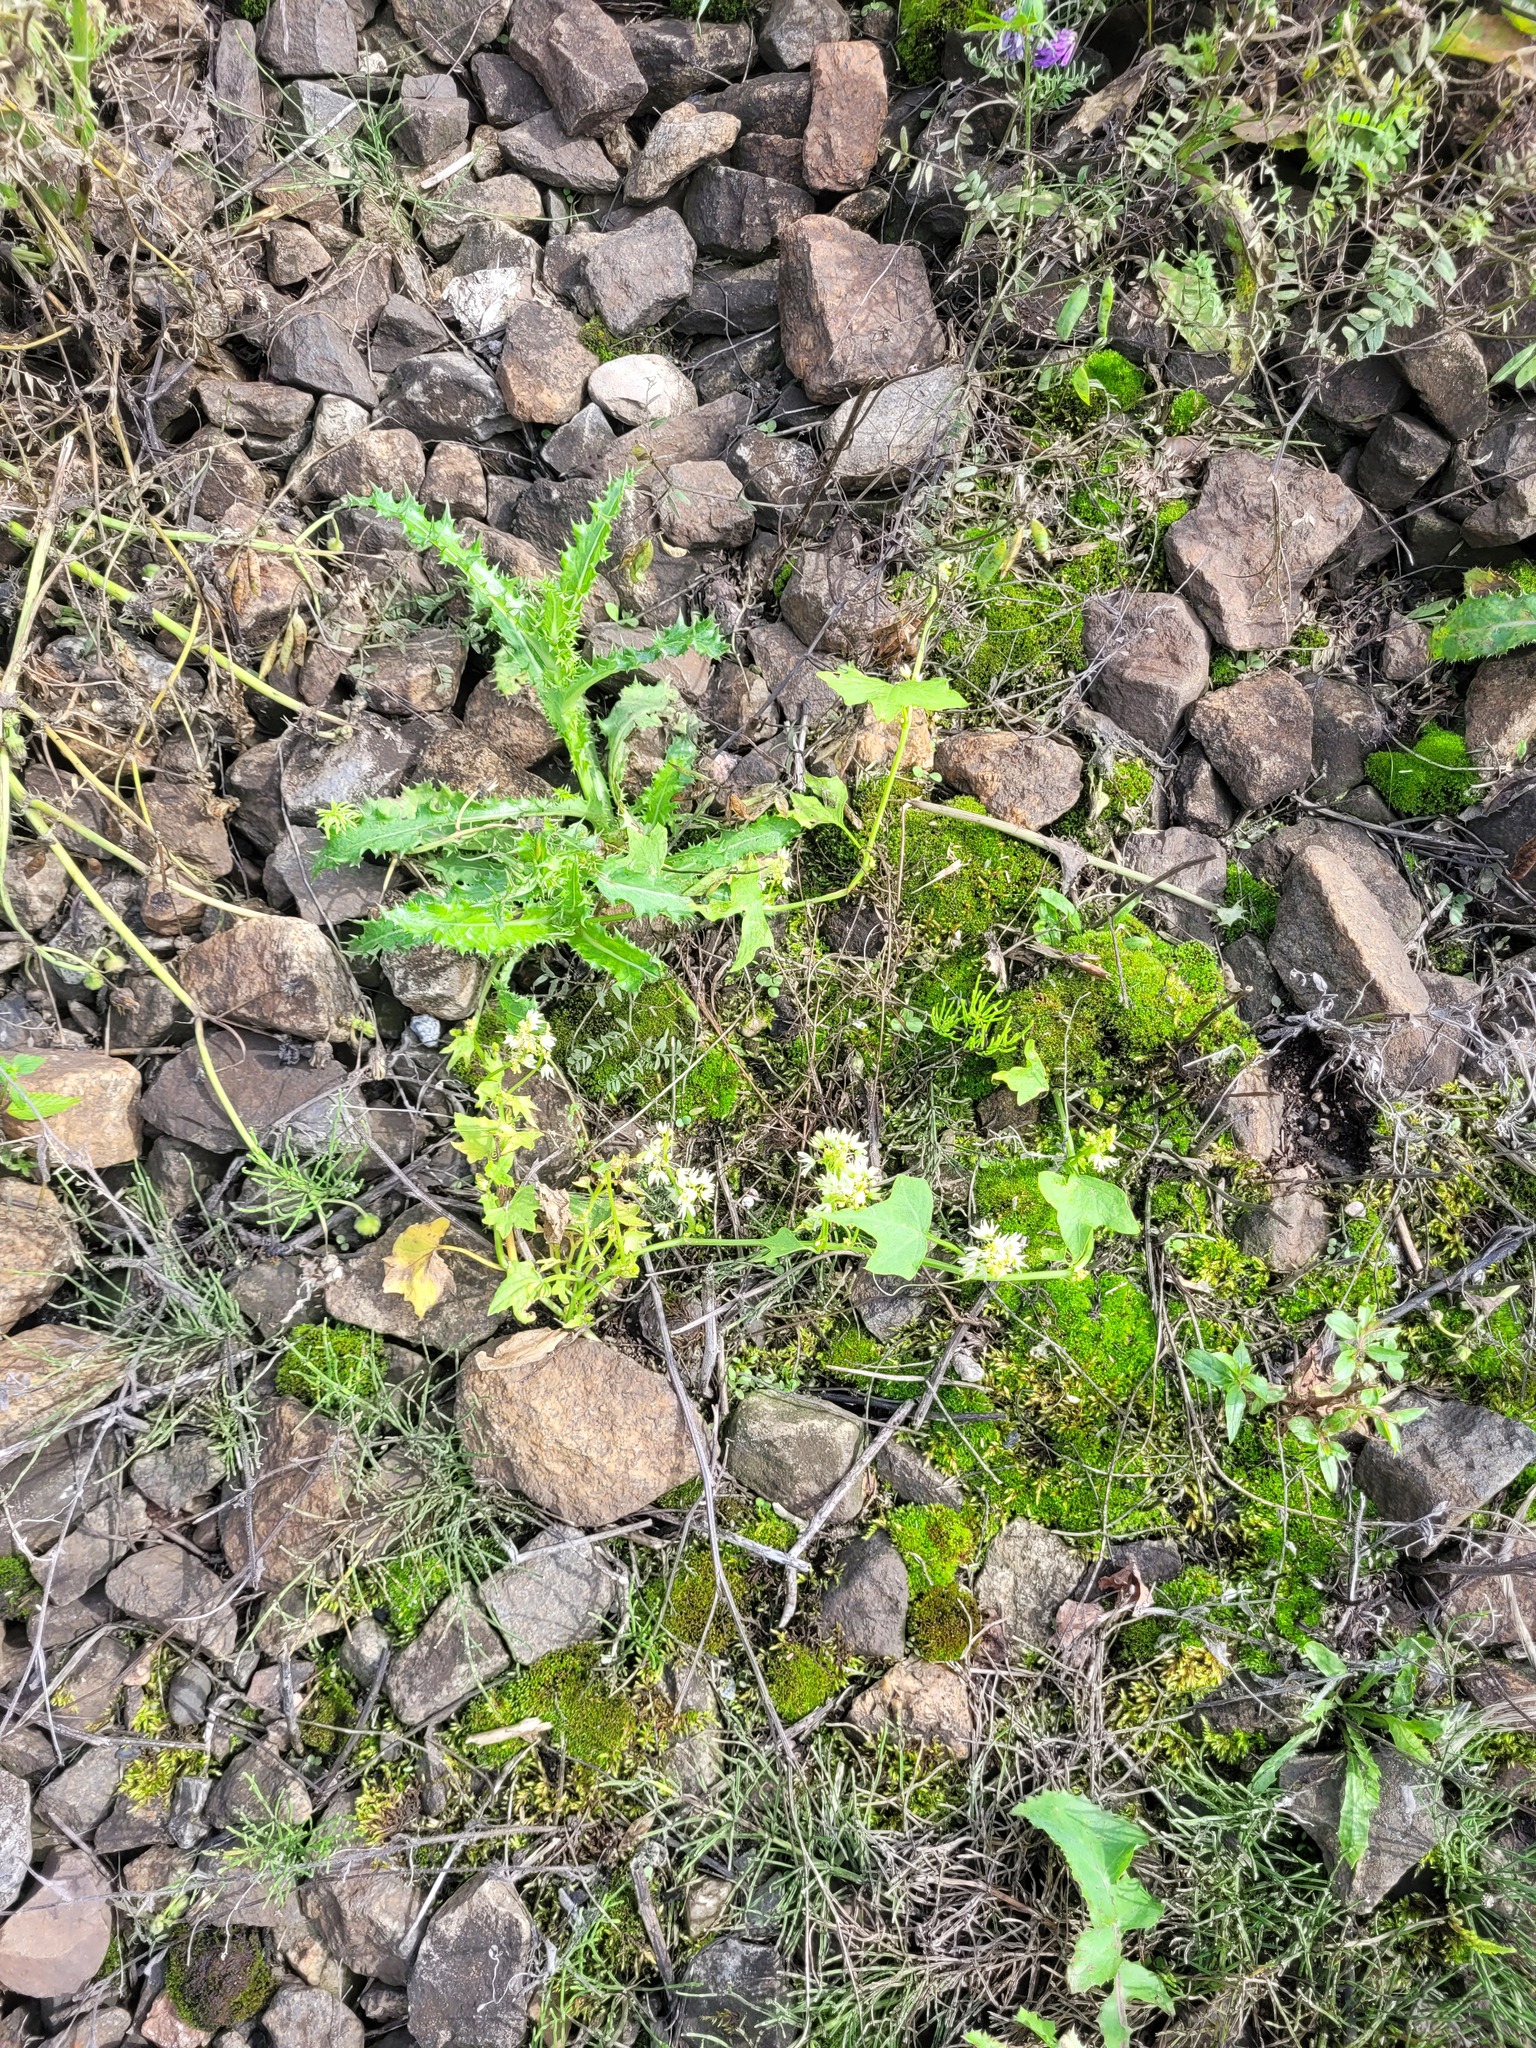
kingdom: Plantae
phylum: Tracheophyta
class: Magnoliopsida
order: Cucurbitales
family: Cucurbitaceae
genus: Echinocystis
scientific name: Echinocystis lobata
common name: Wild cucumber
